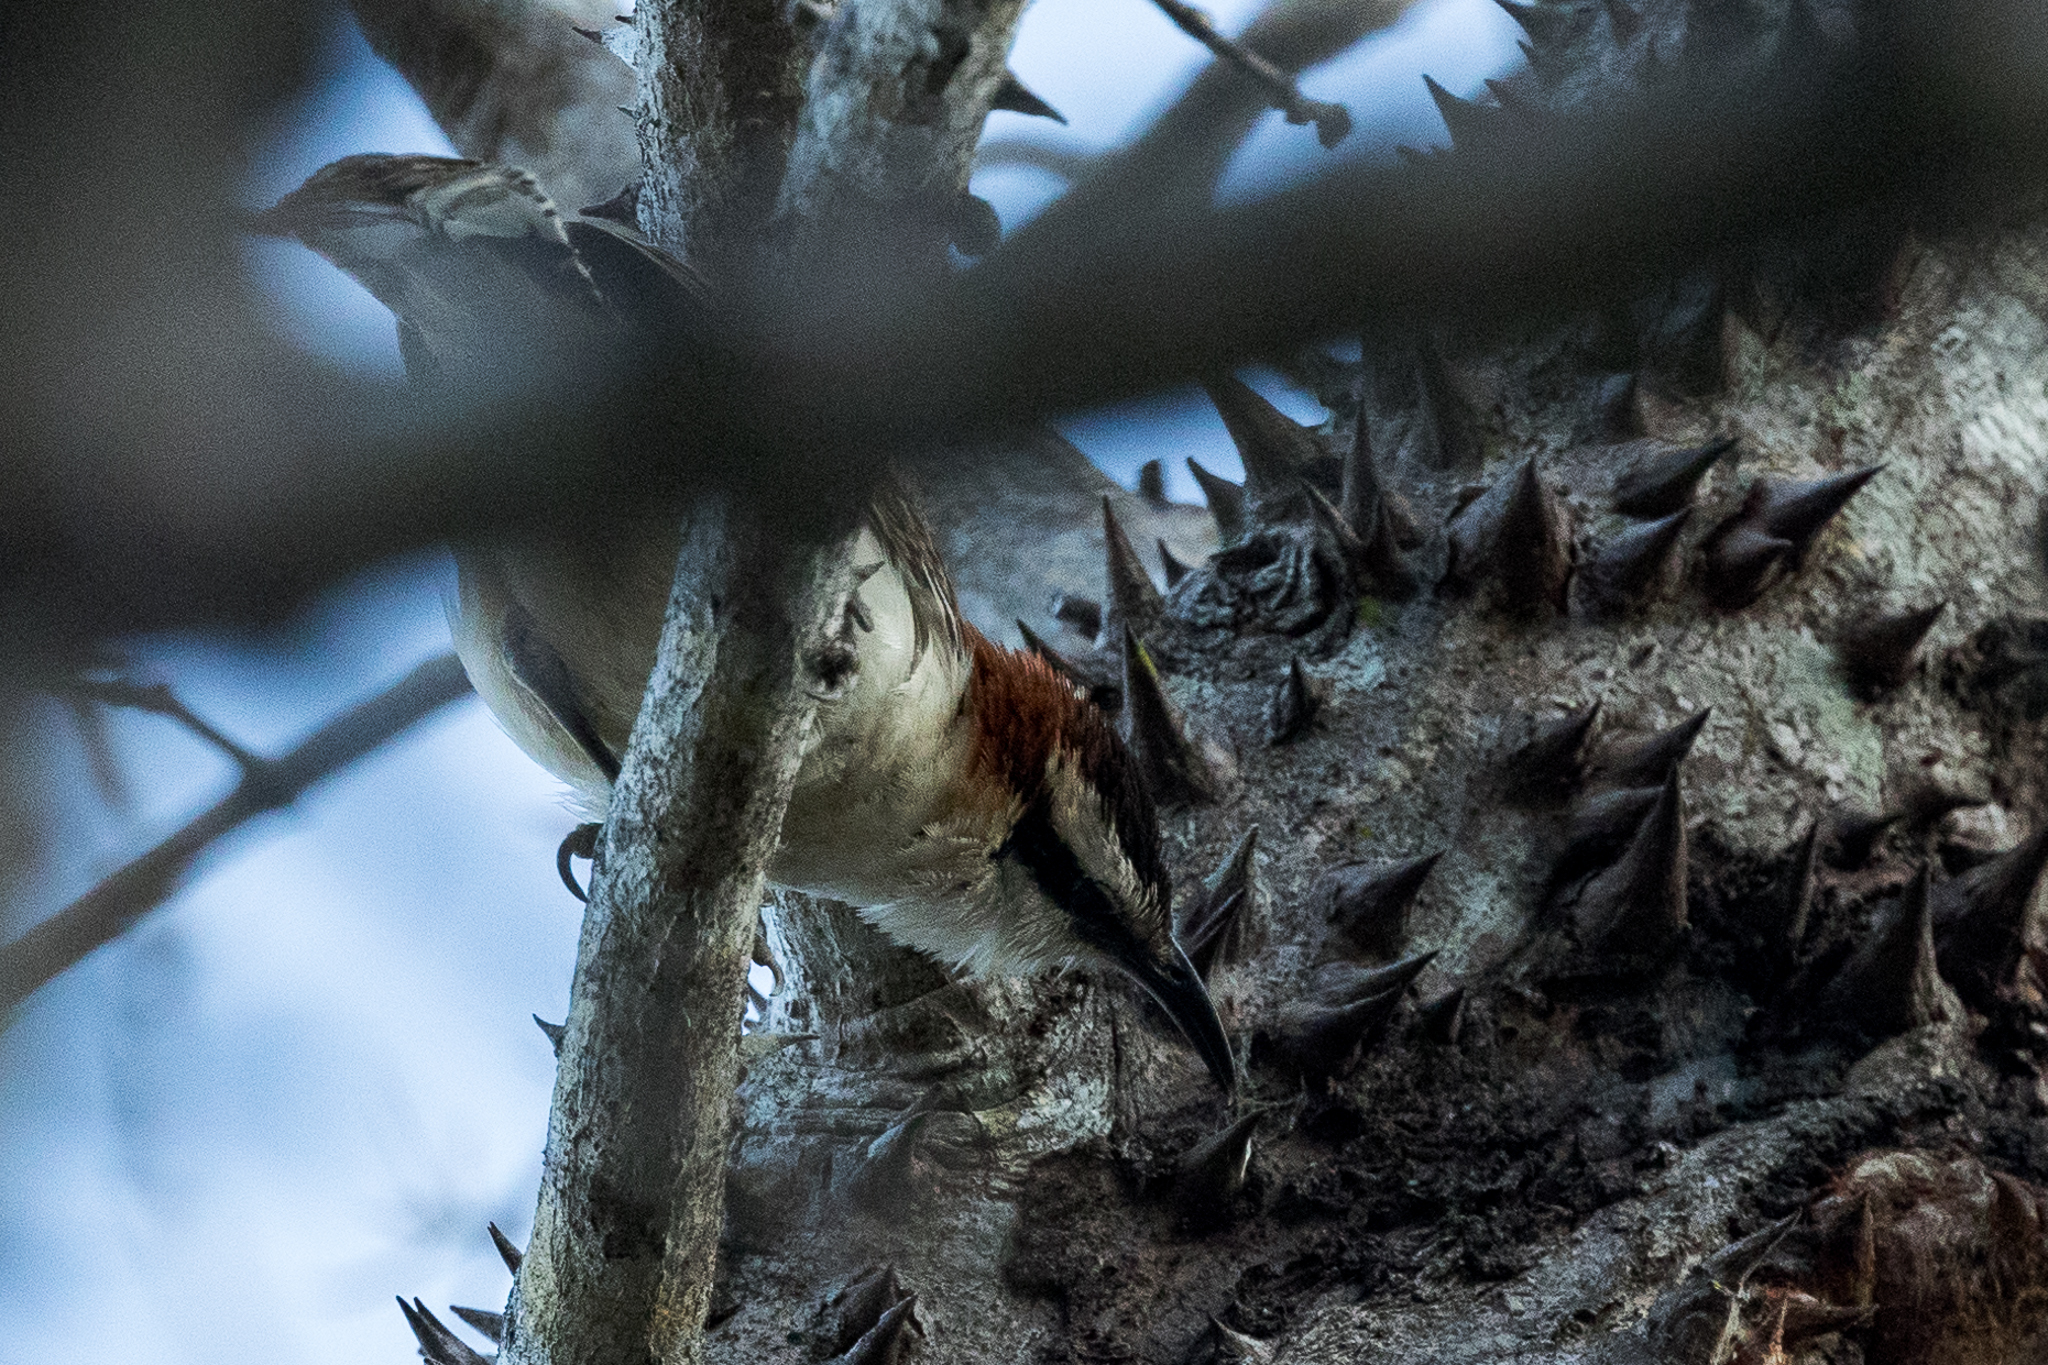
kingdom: Animalia
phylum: Chordata
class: Aves
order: Passeriformes
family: Troglodytidae
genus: Campylorhynchus
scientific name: Campylorhynchus rufinucha
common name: Rufous-naped wren
